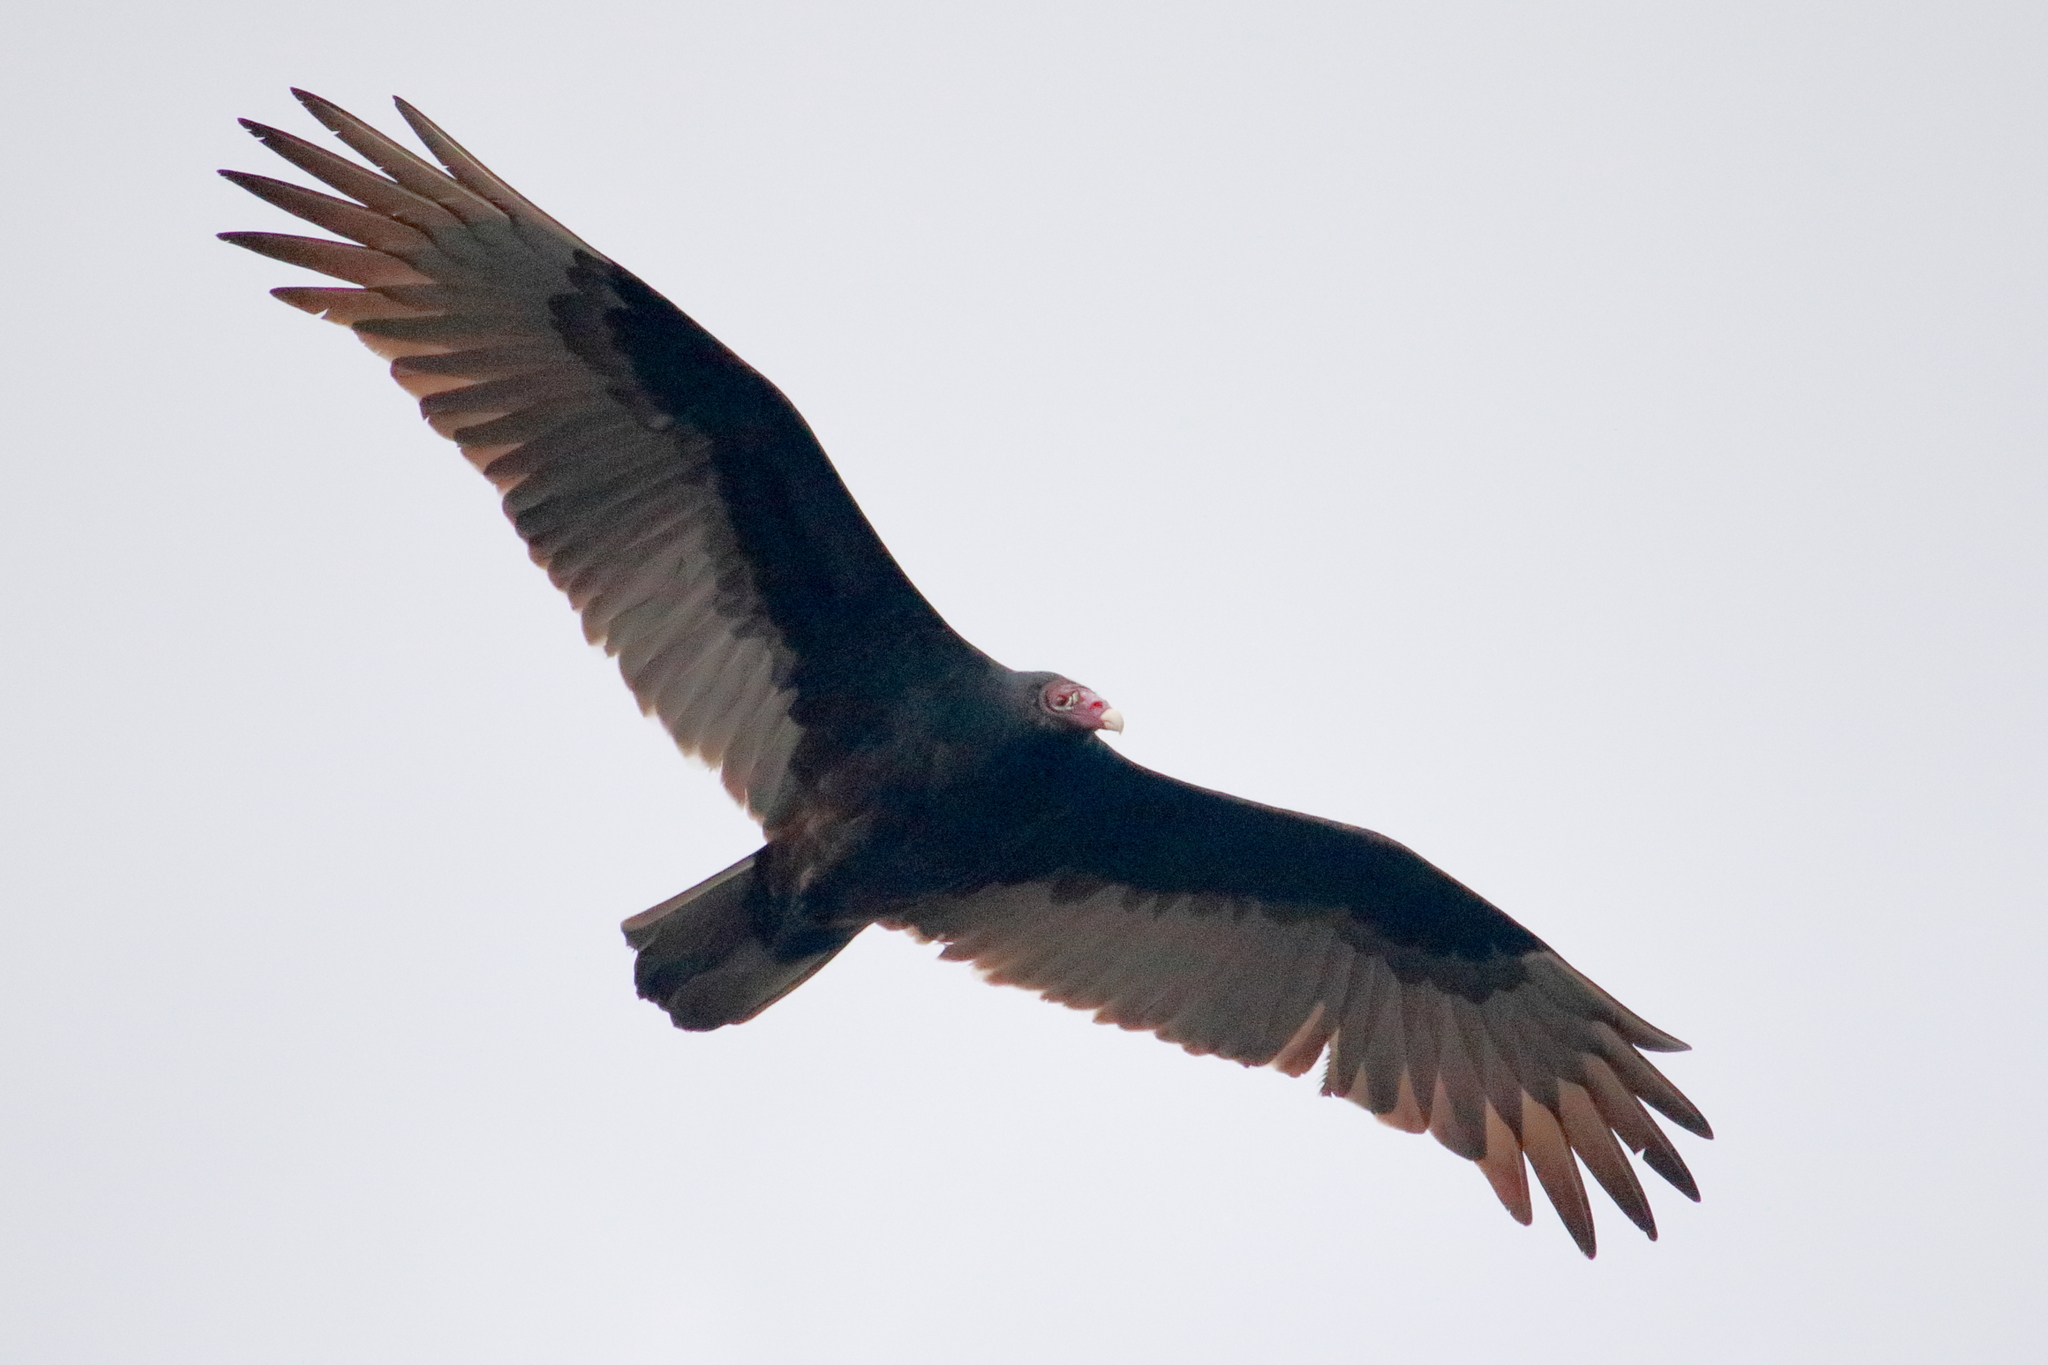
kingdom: Animalia
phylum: Chordata
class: Aves
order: Accipitriformes
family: Cathartidae
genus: Cathartes
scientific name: Cathartes aura
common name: Turkey vulture
